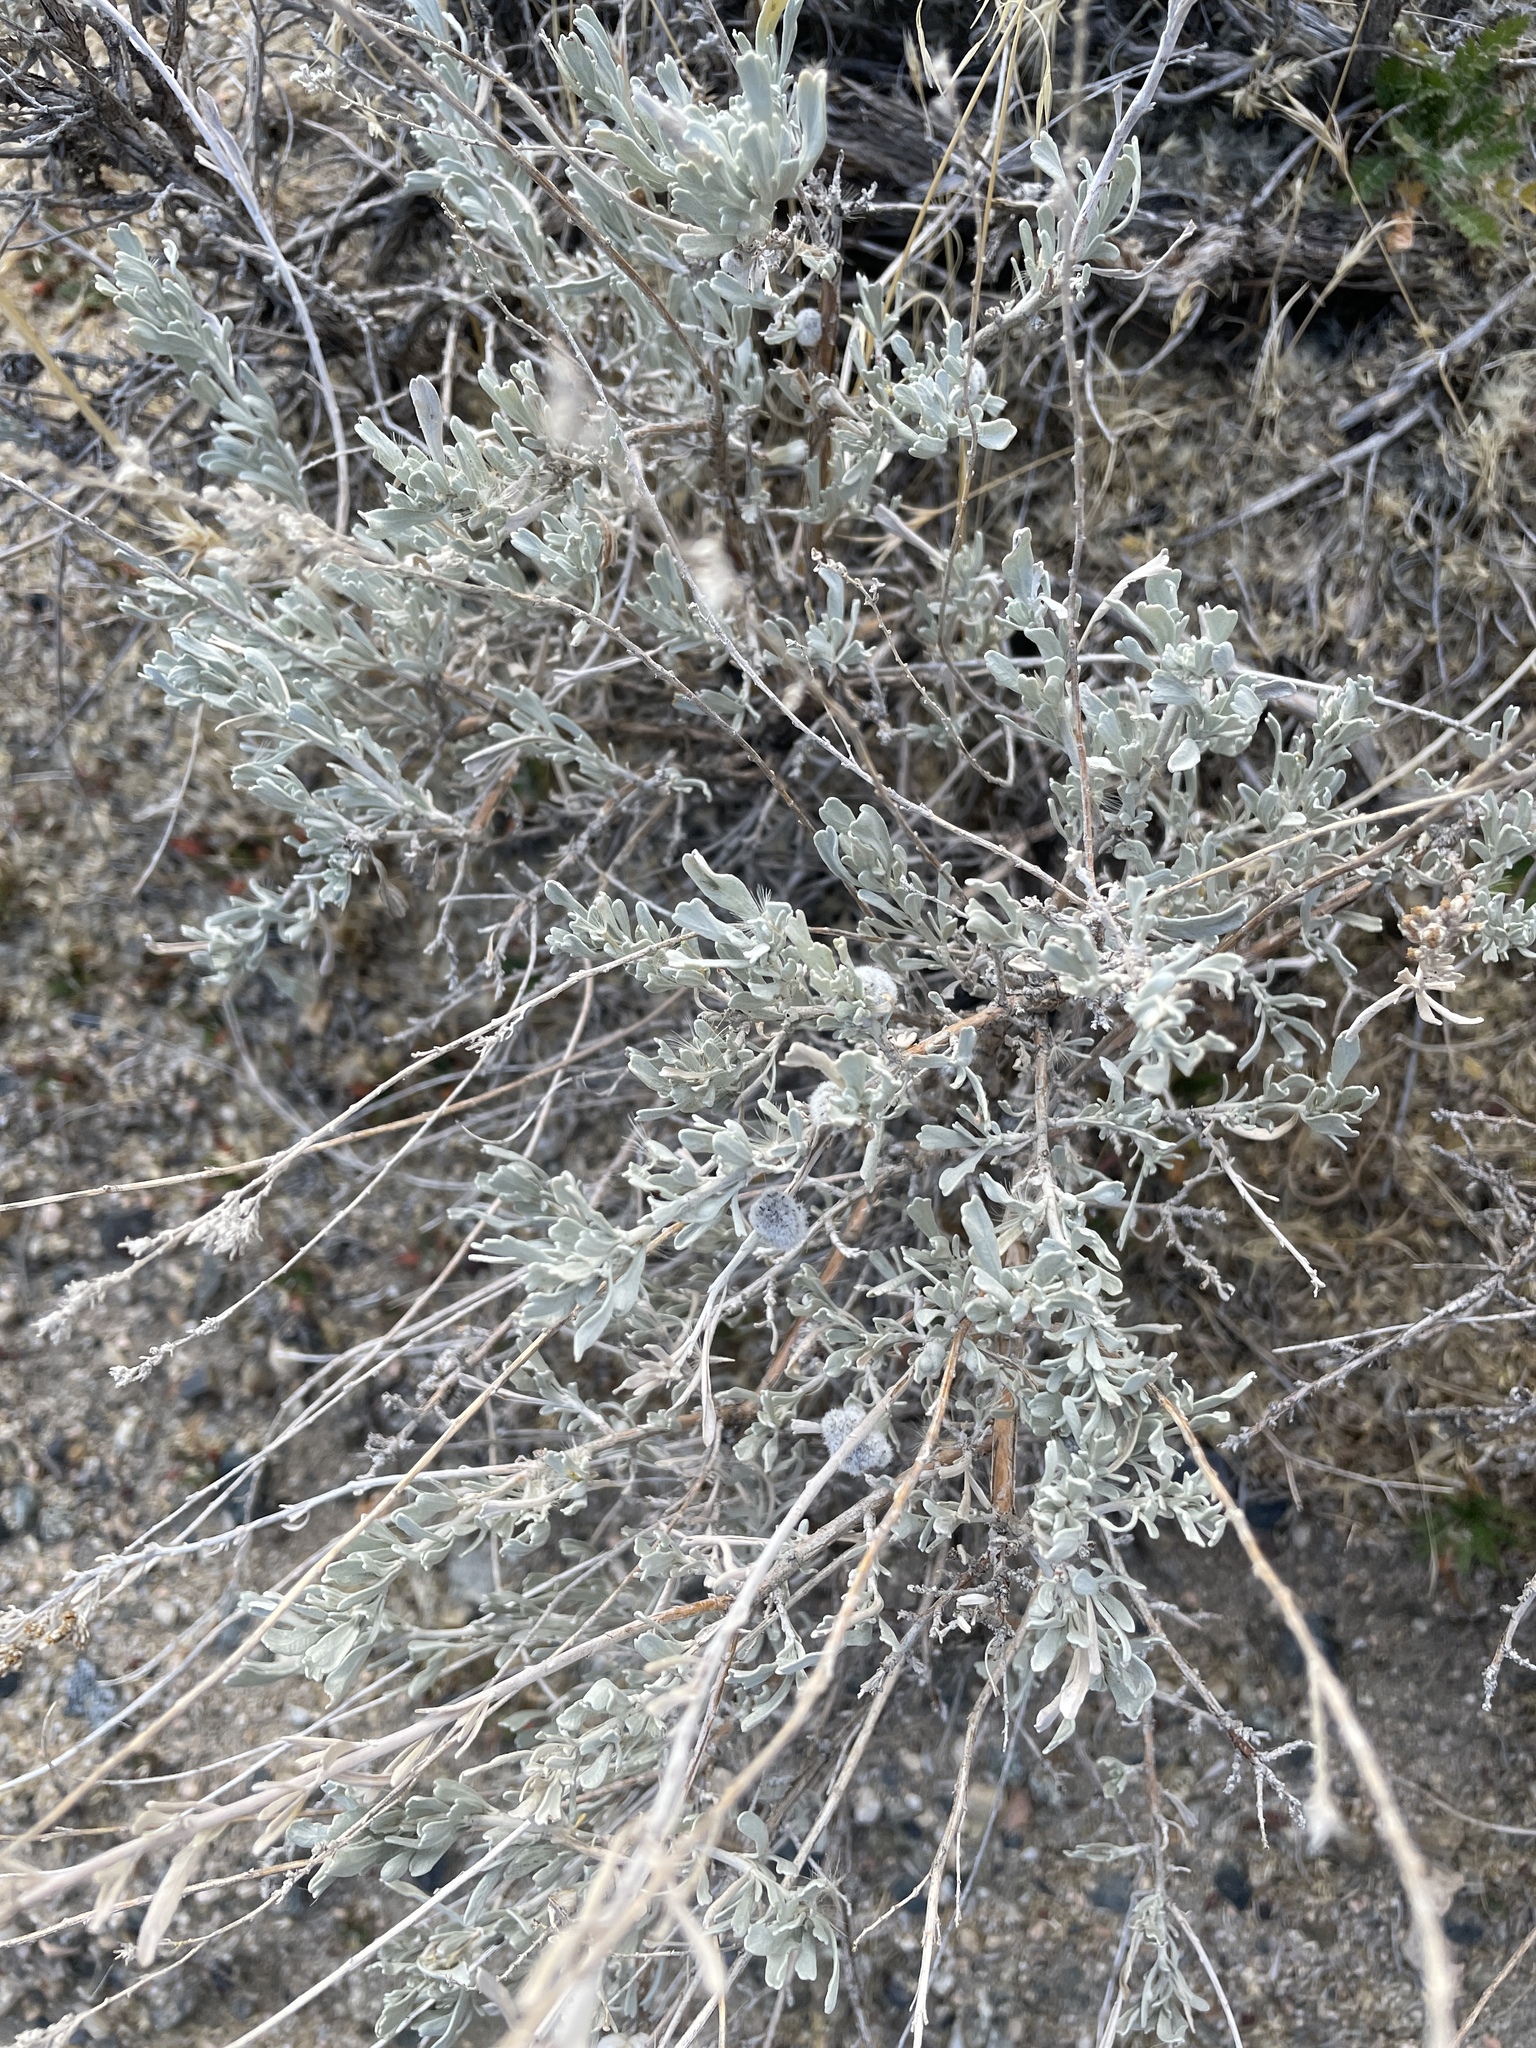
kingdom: Plantae
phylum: Tracheophyta
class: Magnoliopsida
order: Asterales
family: Asteraceae
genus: Artemisia
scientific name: Artemisia tridentata
